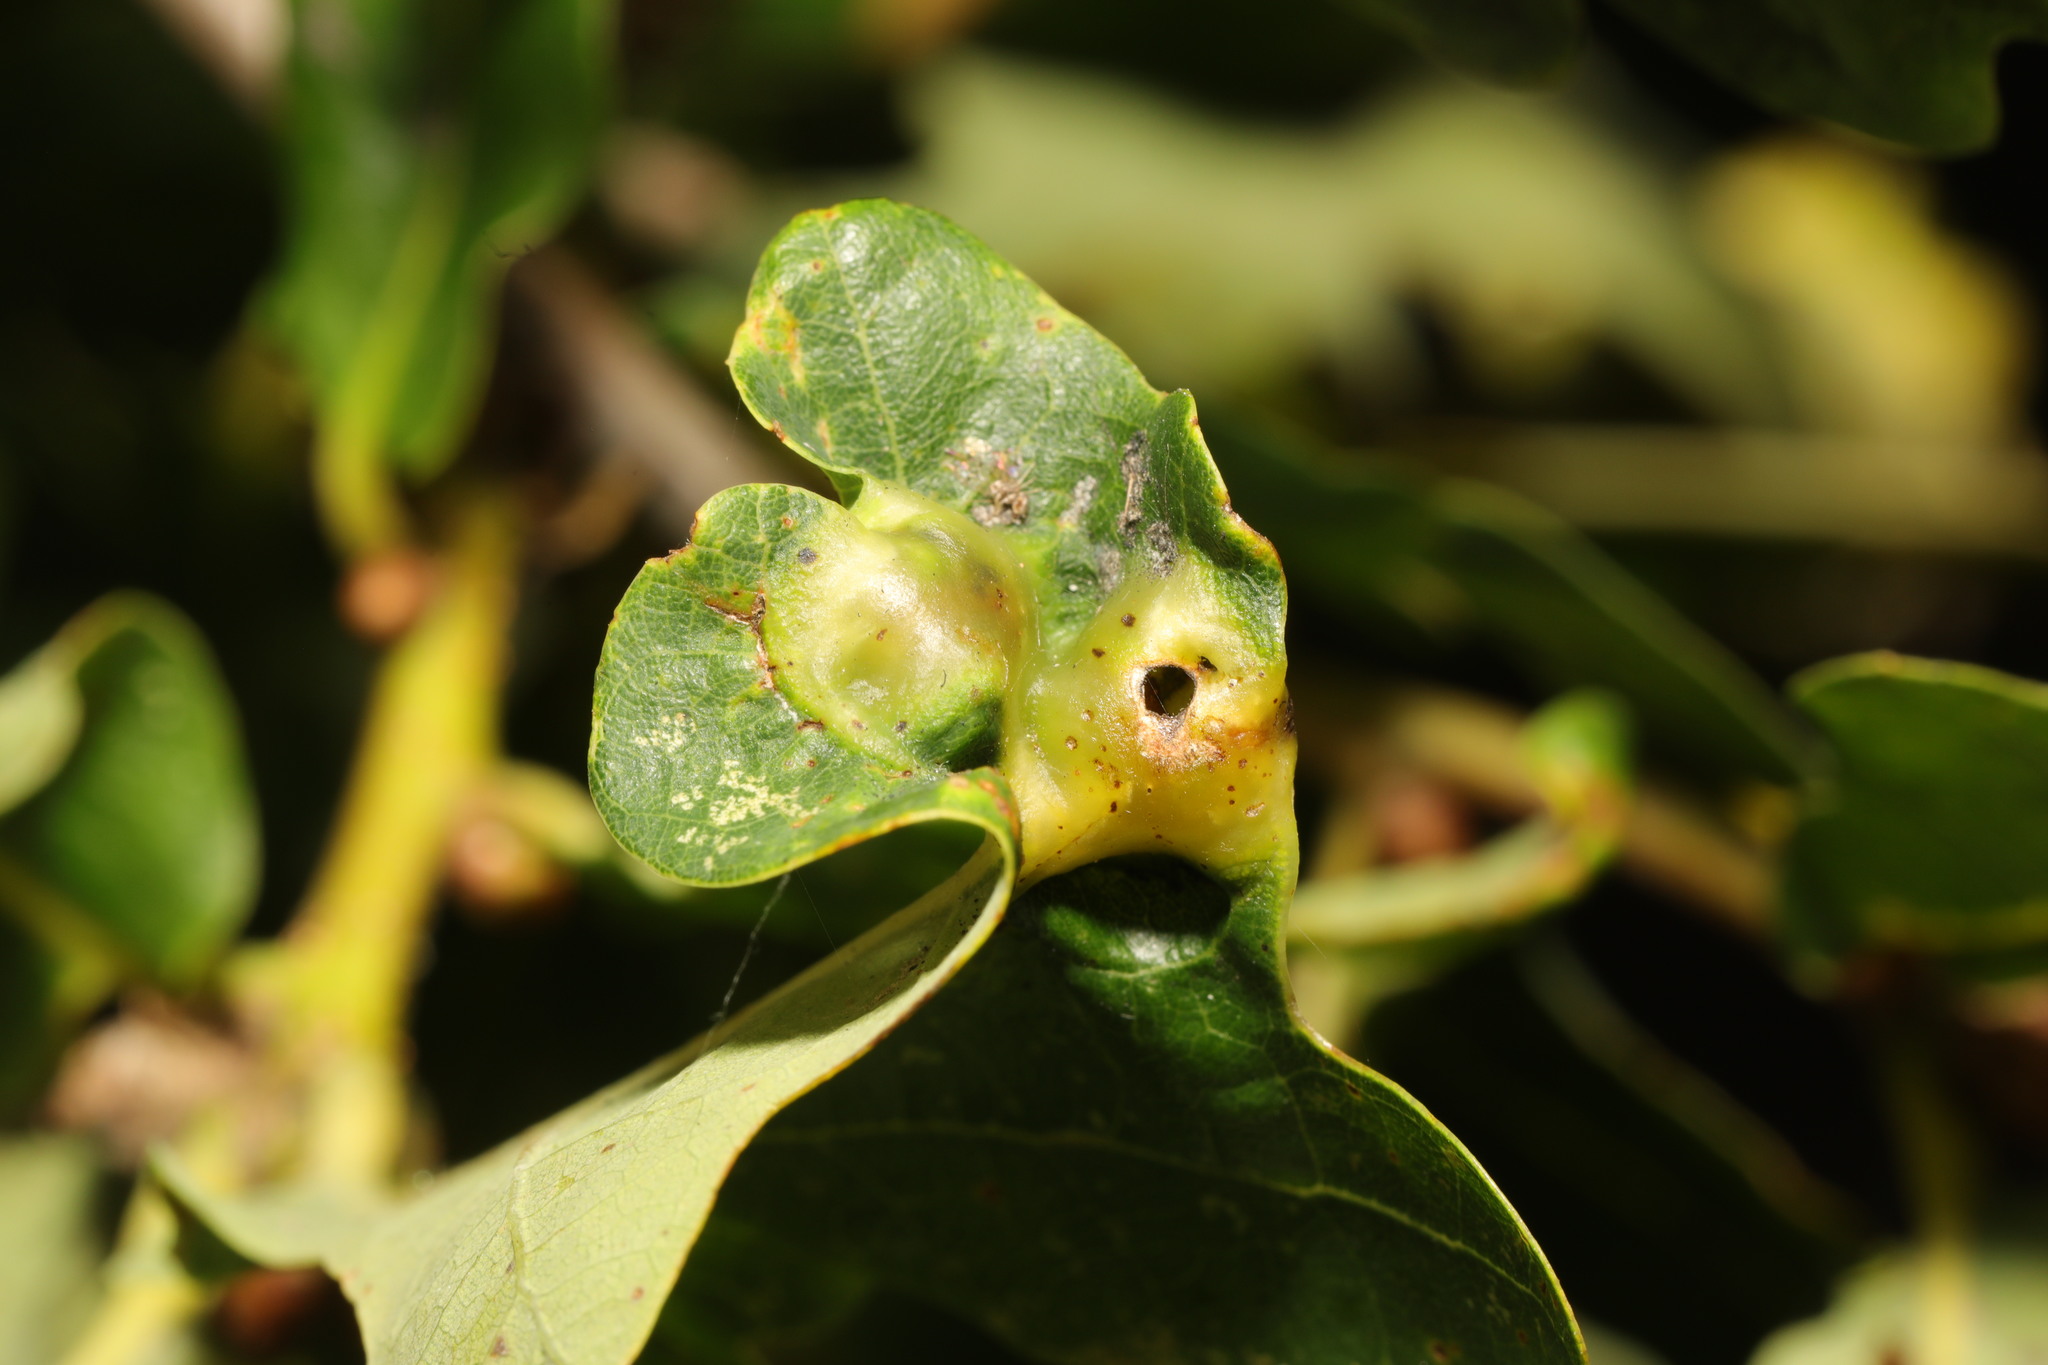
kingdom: Animalia
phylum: Arthropoda
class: Insecta
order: Hymenoptera
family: Cynipidae
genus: Andricus
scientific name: Andricus curvator
